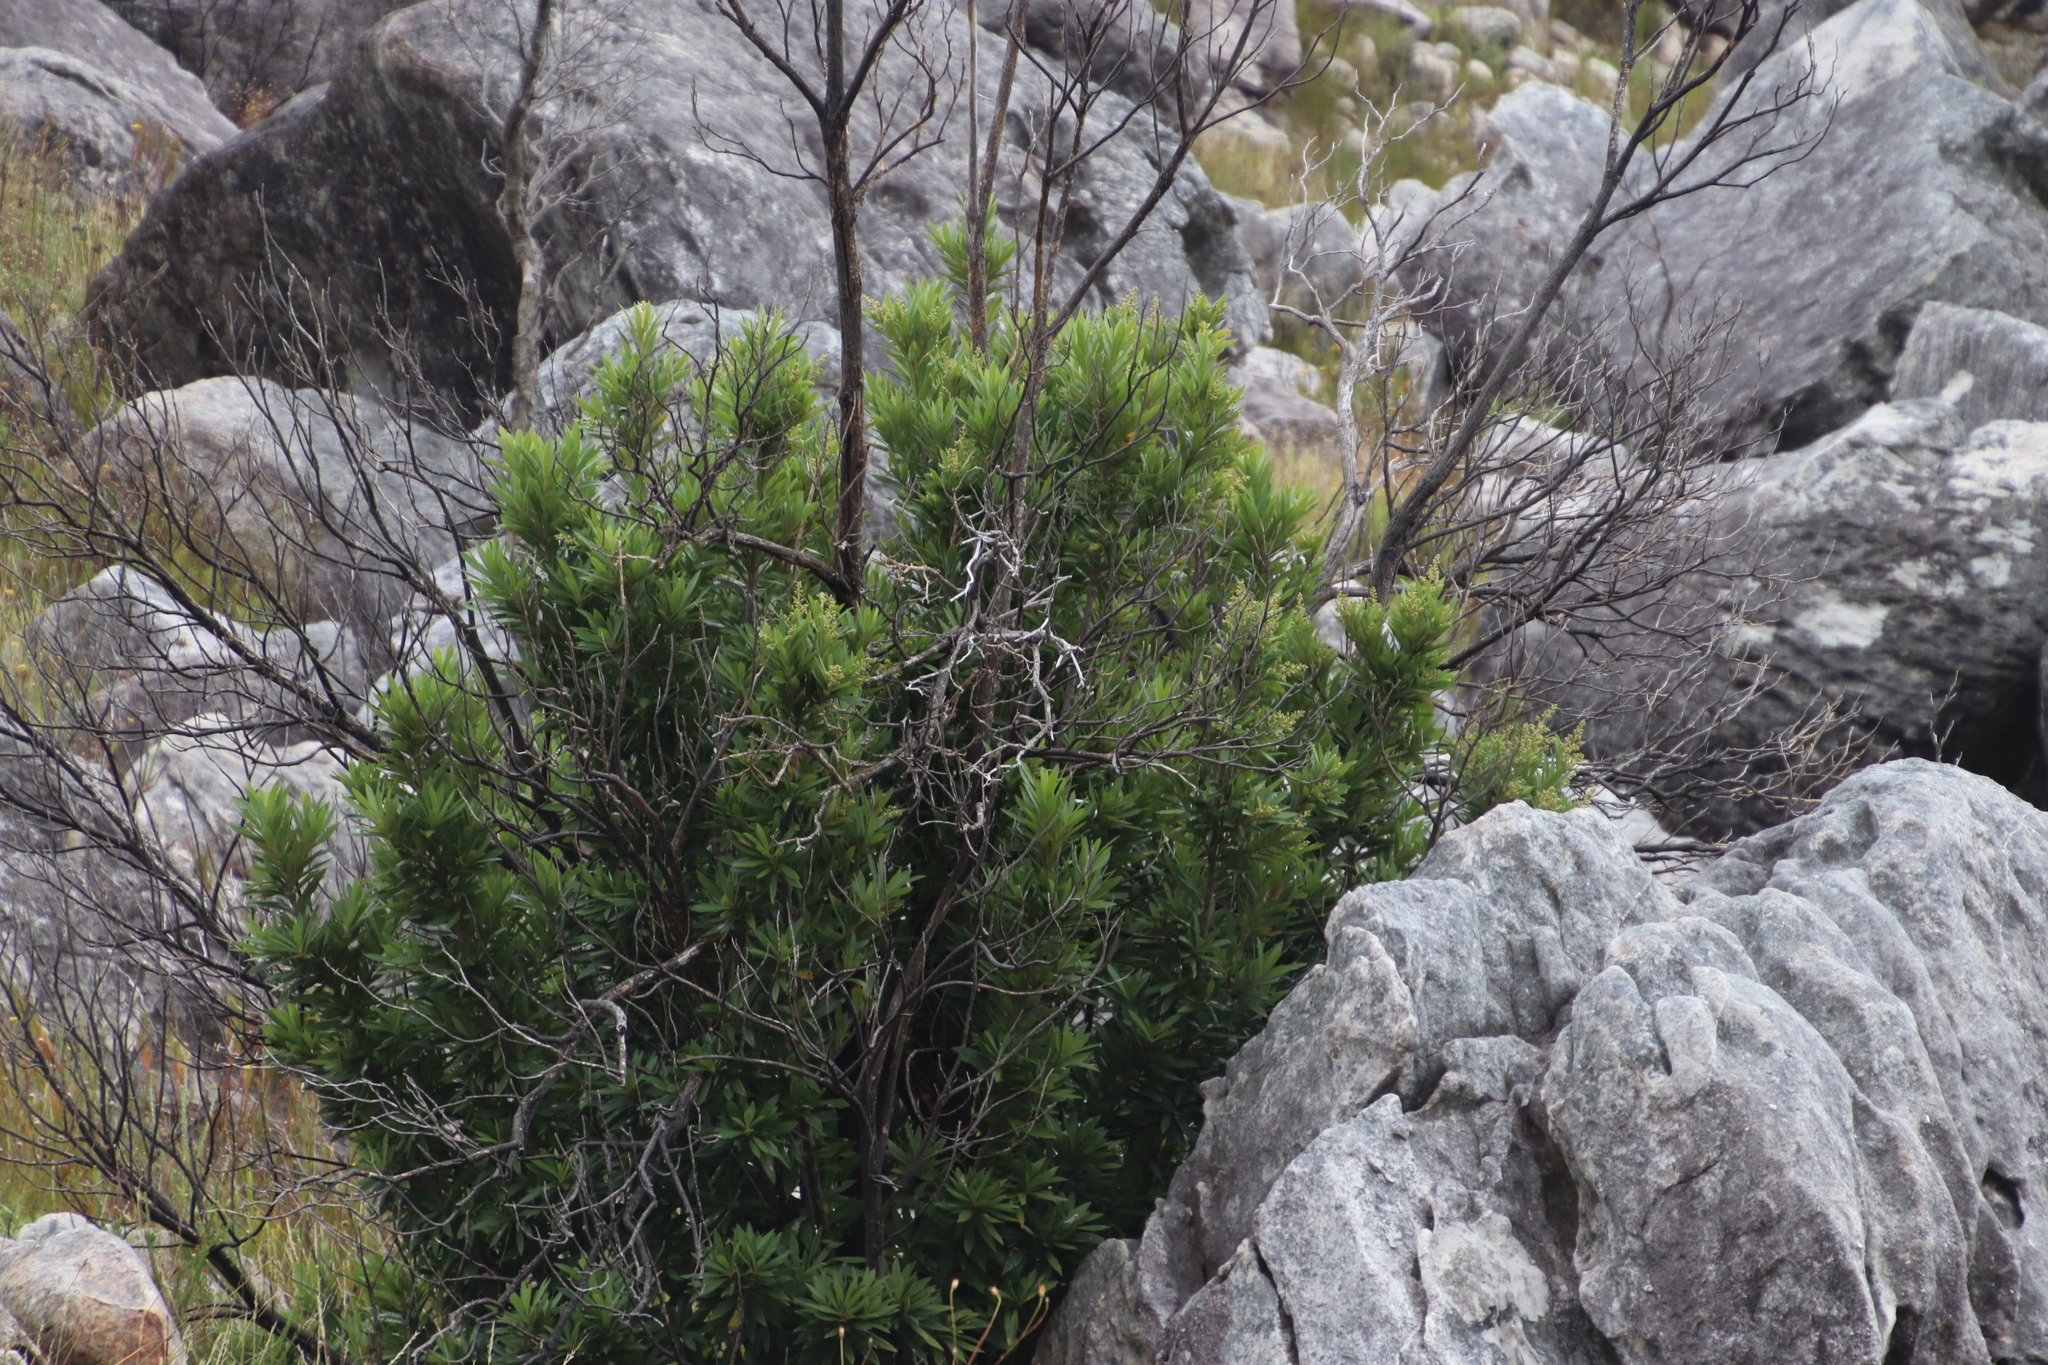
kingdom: Plantae
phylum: Tracheophyta
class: Magnoliopsida
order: Asterales
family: Asteraceae
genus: Brachylaena
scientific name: Brachylaena neriifolia
